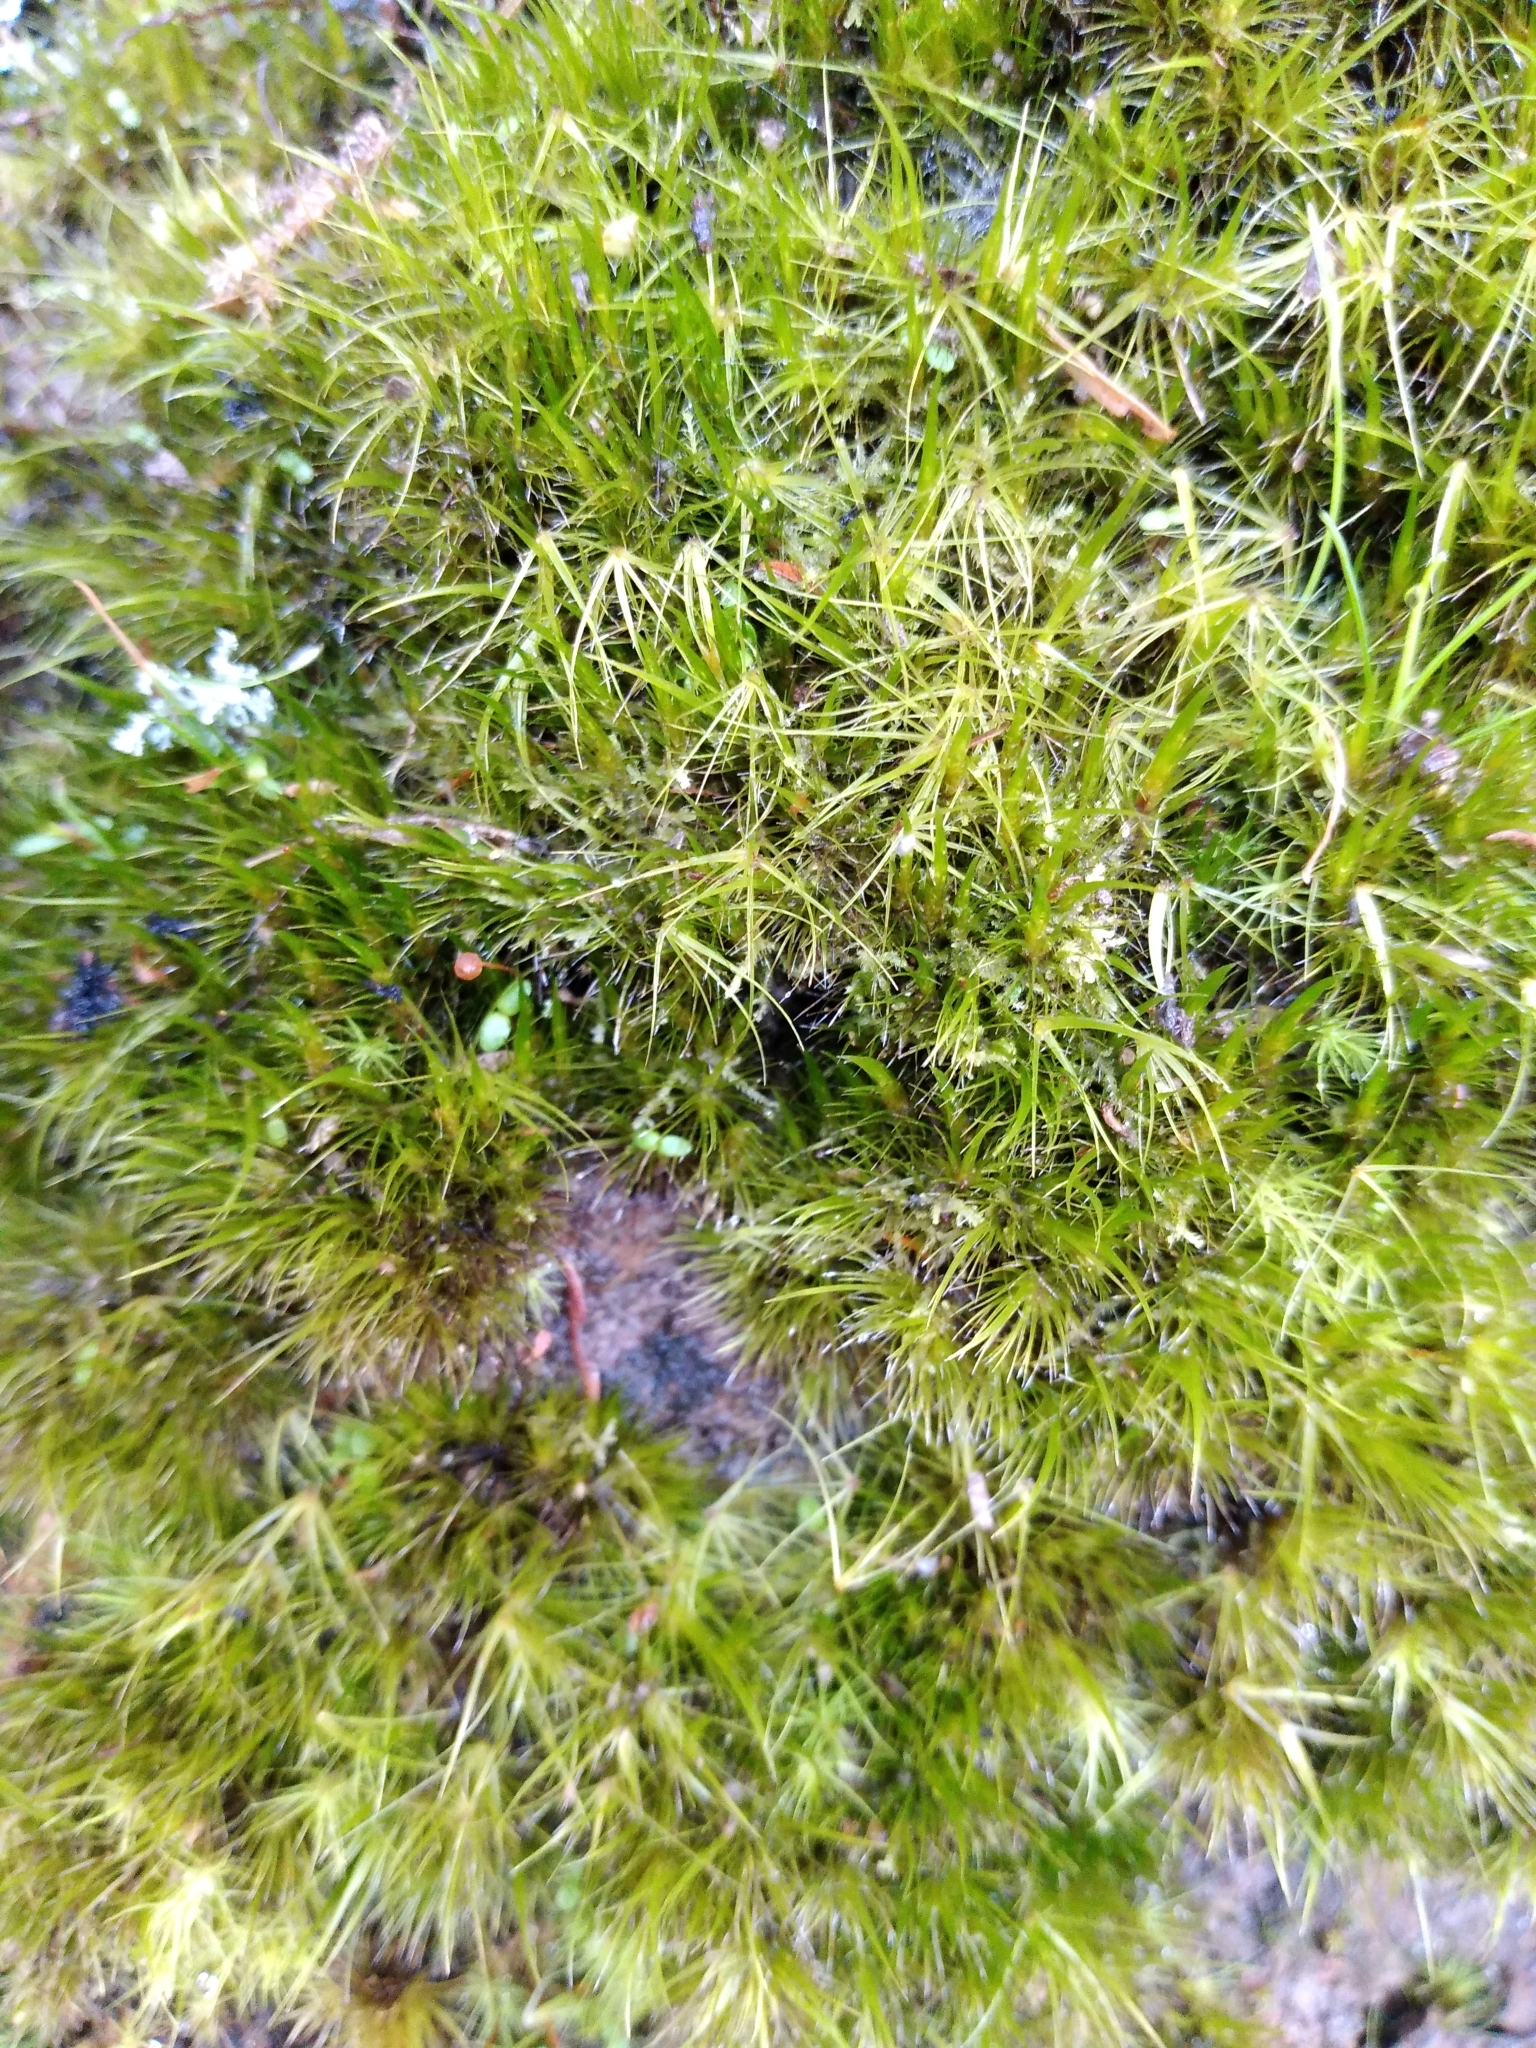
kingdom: Plantae
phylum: Bryophyta
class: Bryopsida
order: Dicranales
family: Leucobryaceae
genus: Campylopus
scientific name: Campylopus clavatus
